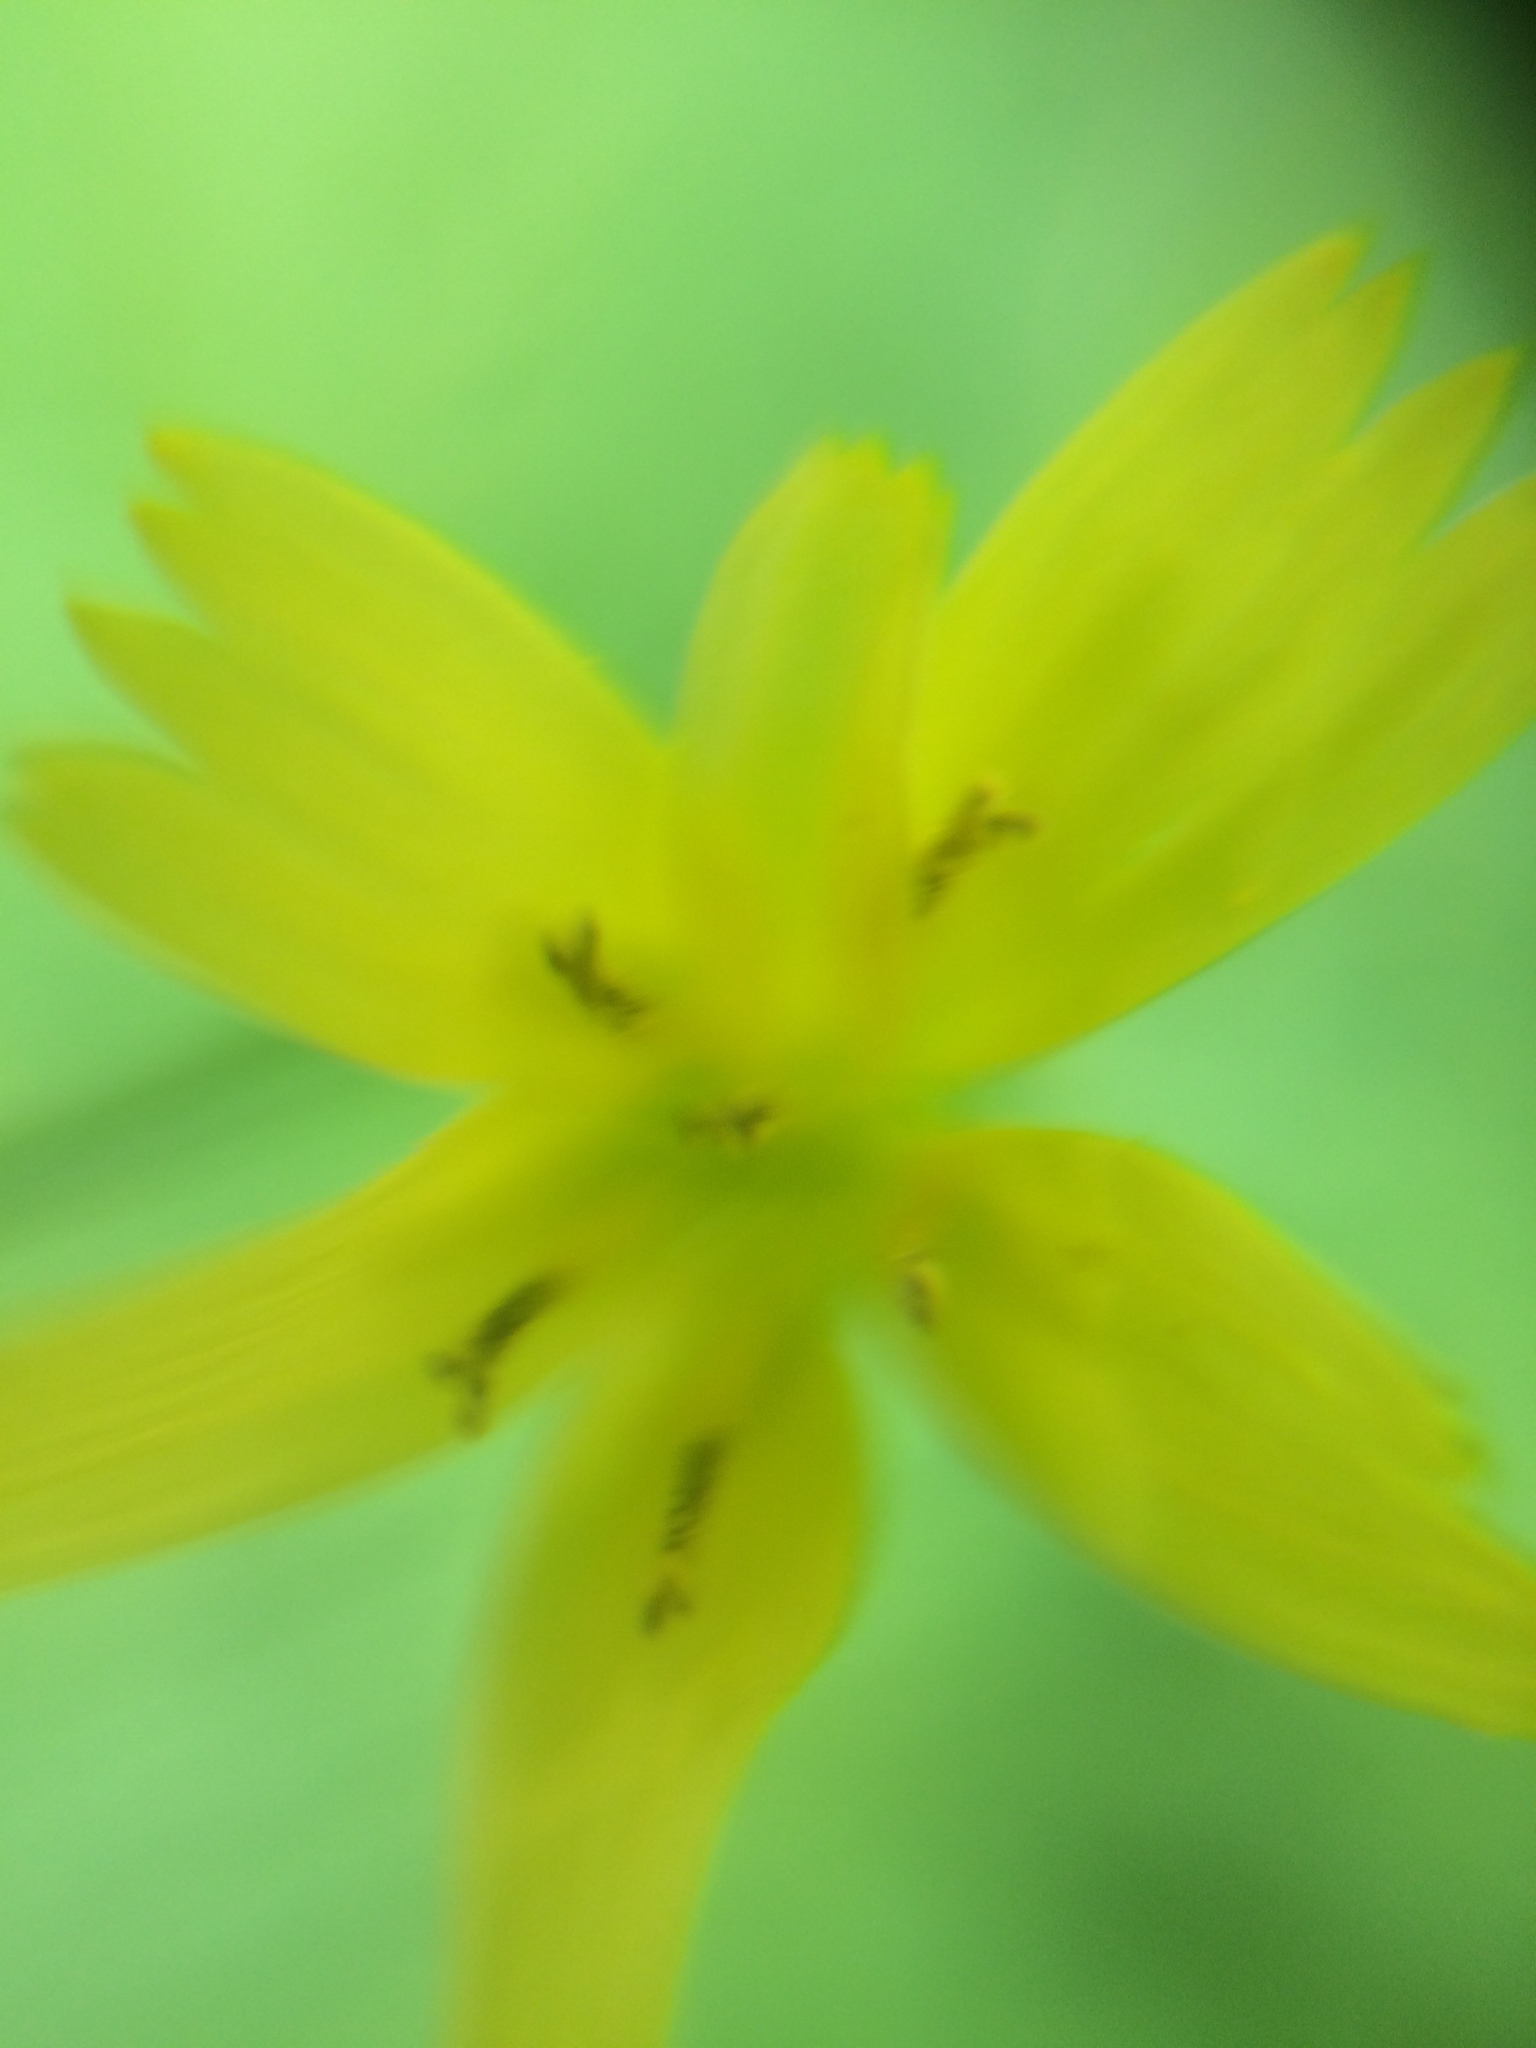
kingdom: Plantae
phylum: Tracheophyta
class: Magnoliopsida
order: Asterales
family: Asteraceae
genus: Rhagadiolus
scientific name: Rhagadiolus stellatus
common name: Star hawkbit
